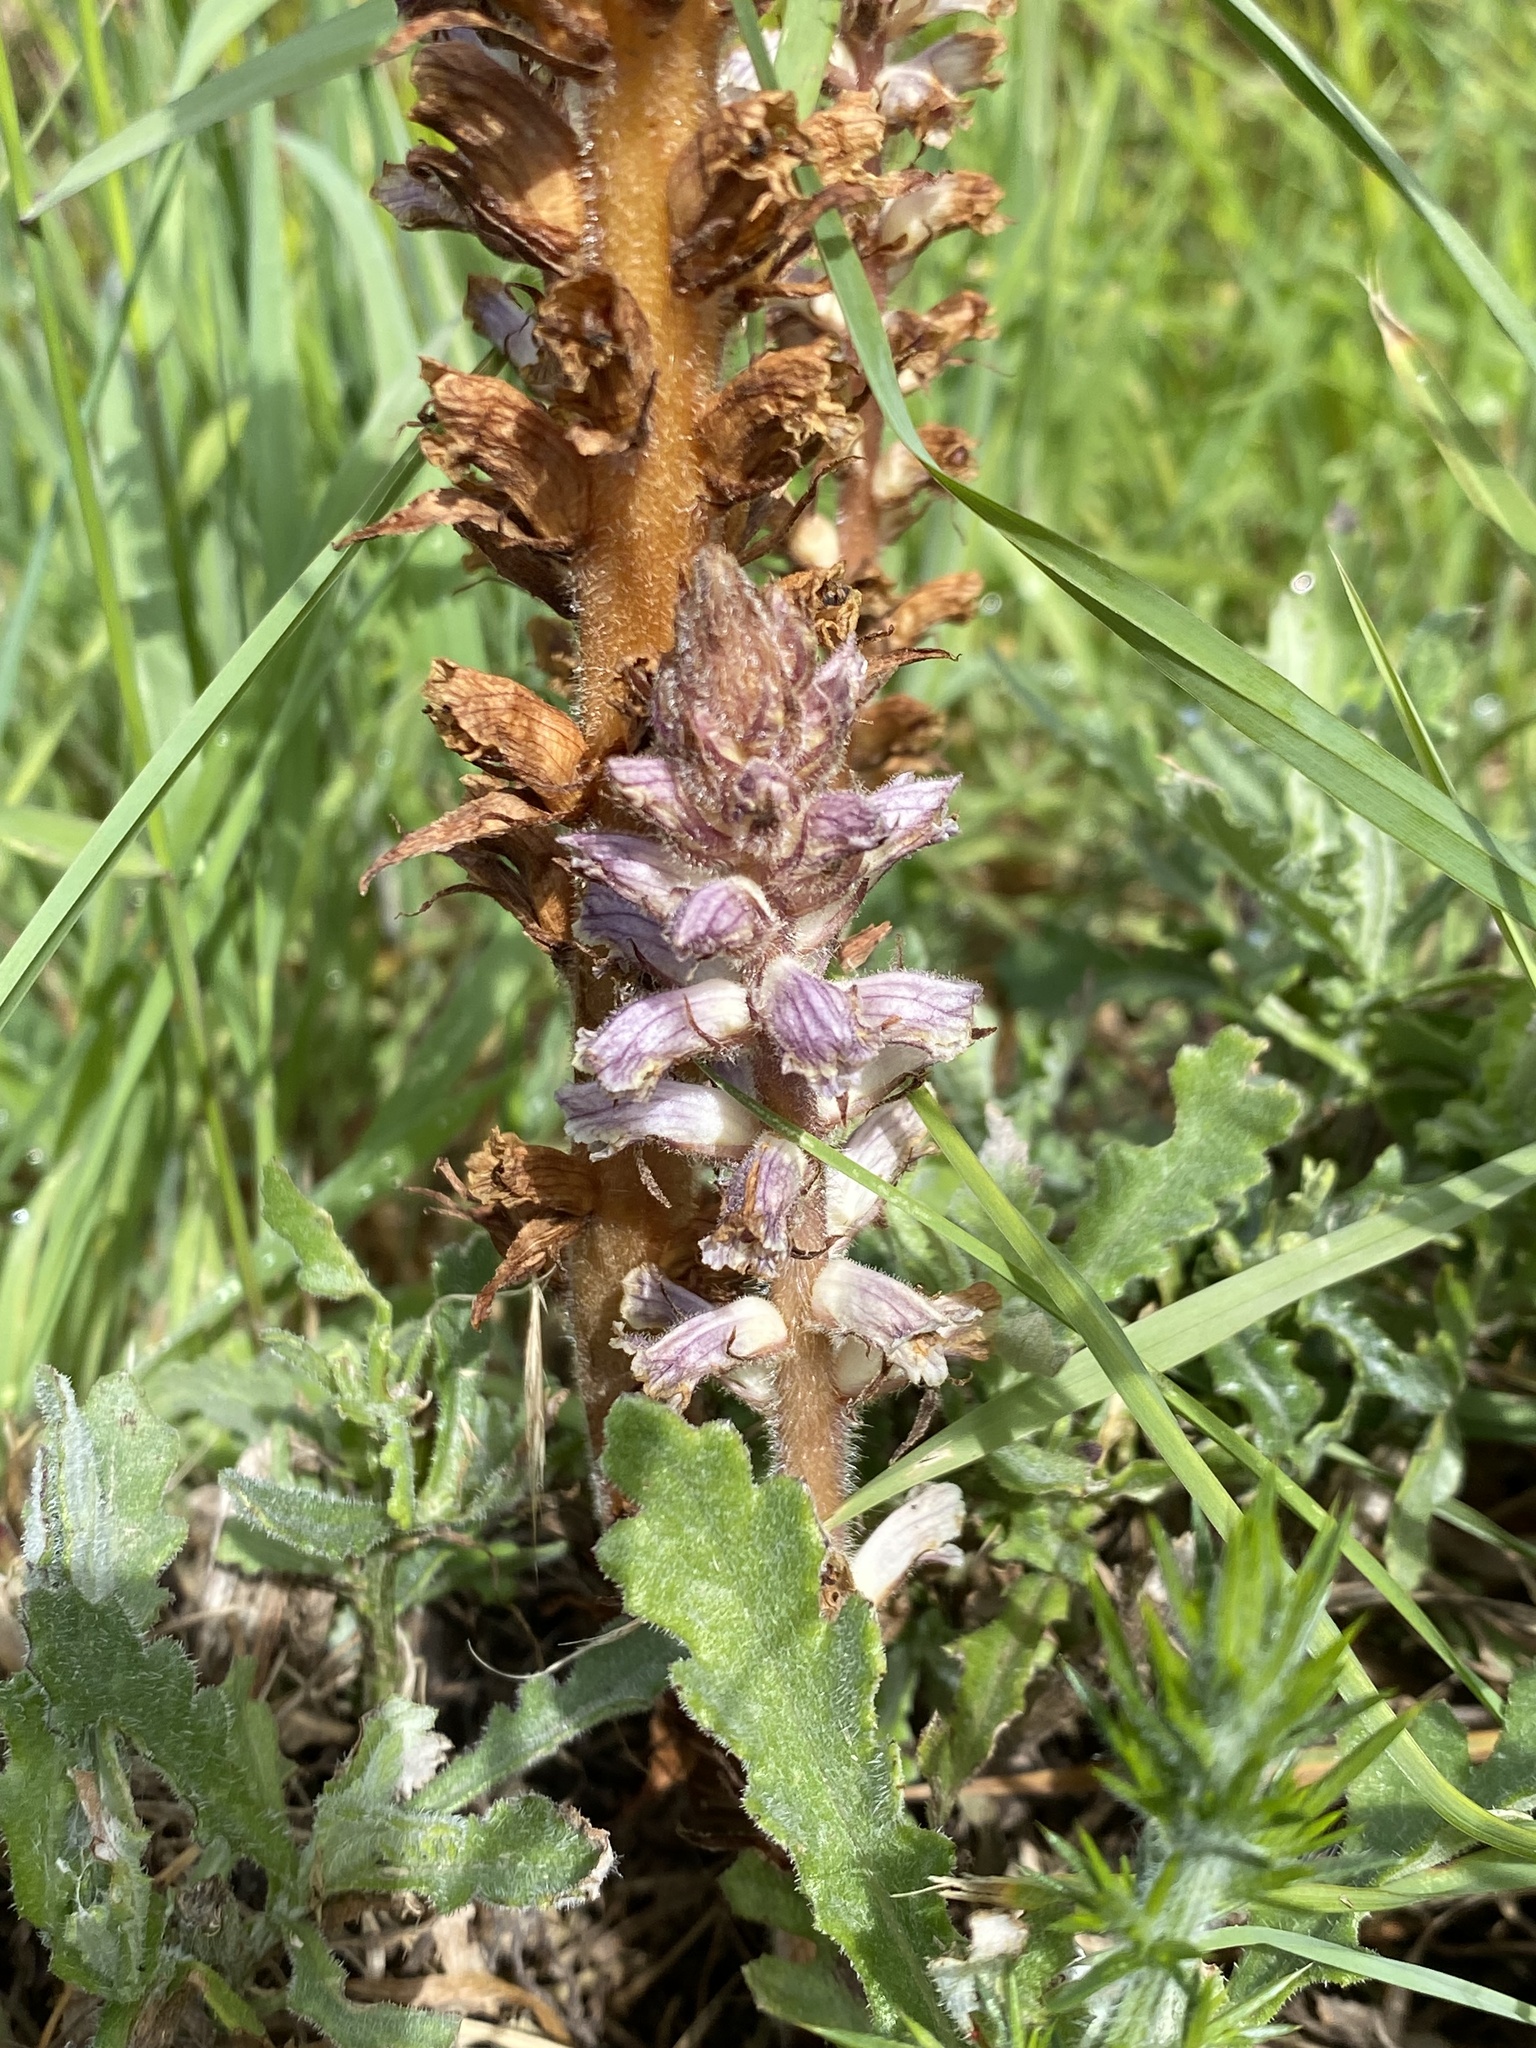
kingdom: Plantae
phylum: Tracheophyta
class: Magnoliopsida
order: Lamiales
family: Orobanchaceae
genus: Orobanche
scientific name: Orobanche minor
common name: Common broomrape
